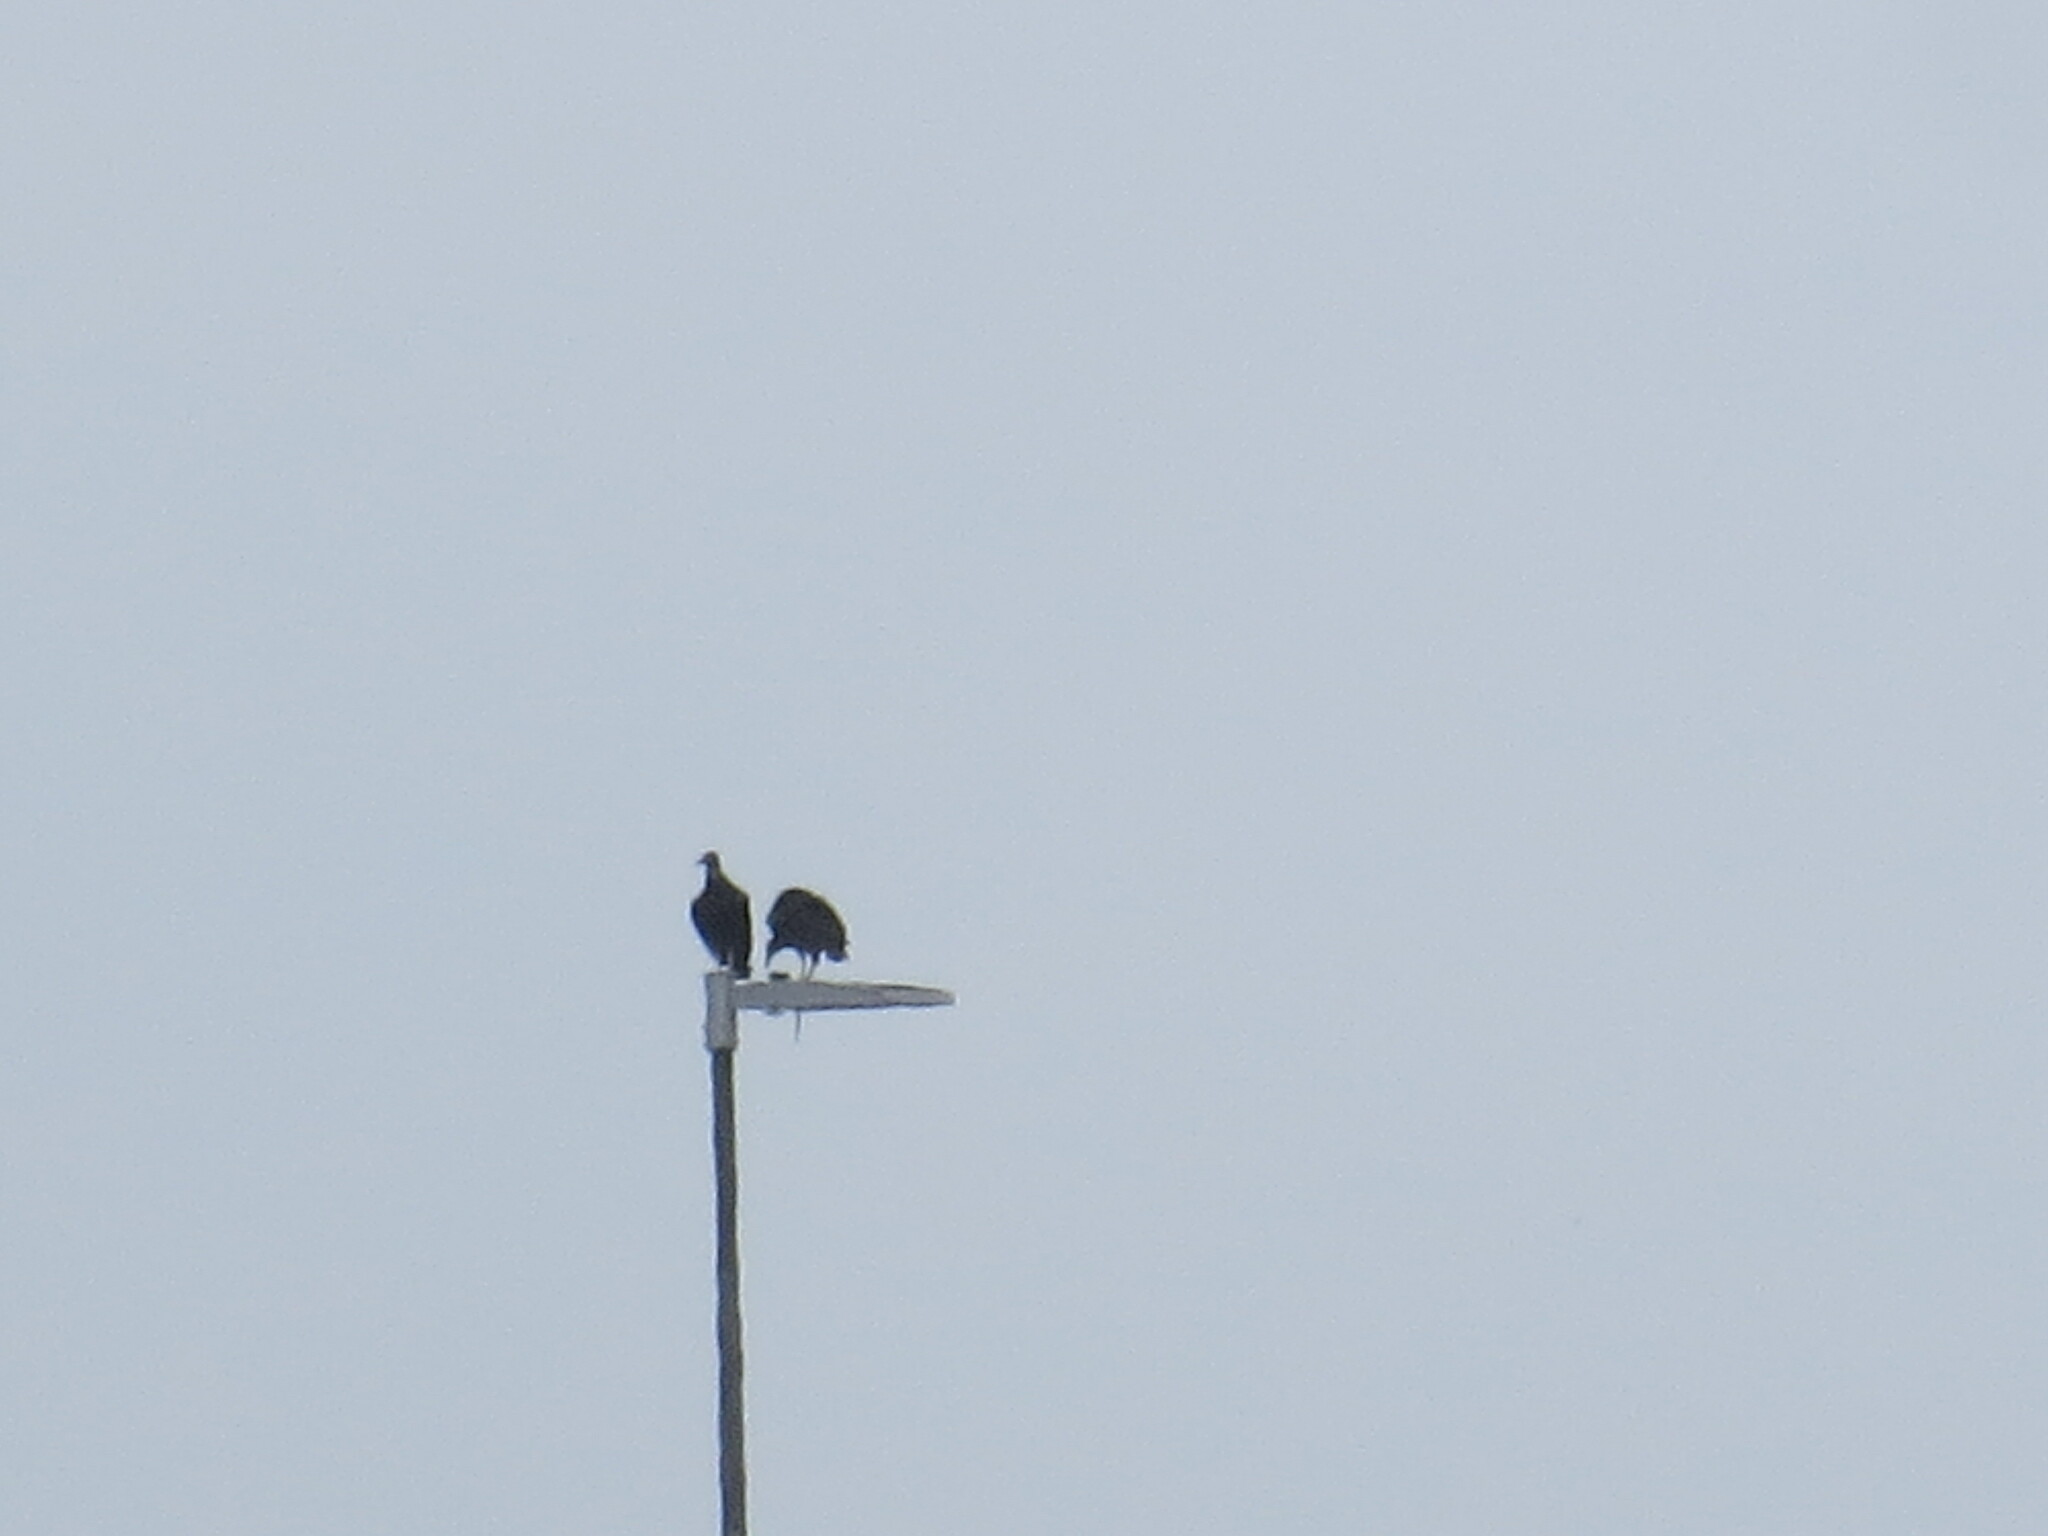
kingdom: Animalia
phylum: Chordata
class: Aves
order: Accipitriformes
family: Cathartidae
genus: Coragyps
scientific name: Coragyps atratus
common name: Black vulture
